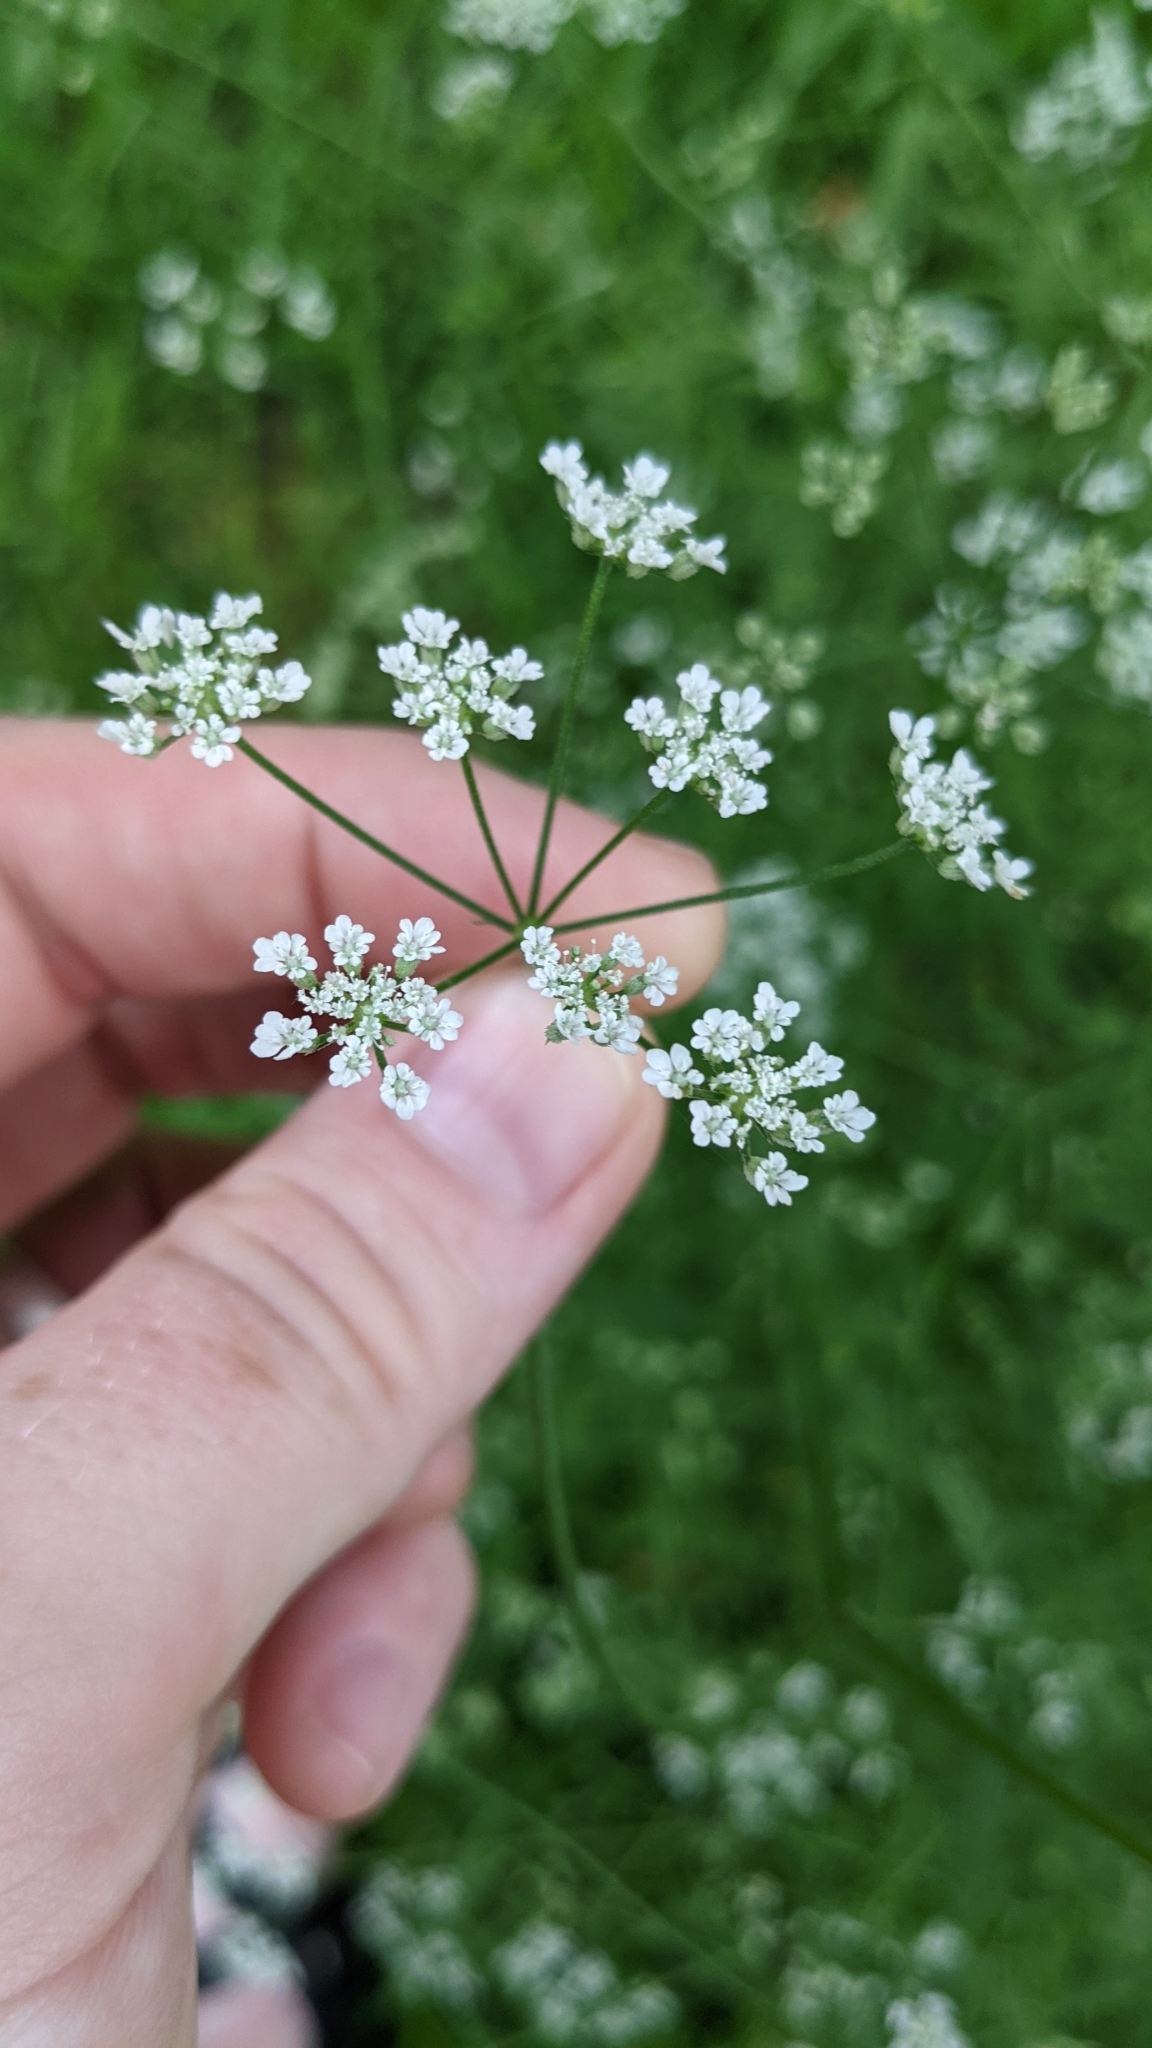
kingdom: Plantae
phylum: Tracheophyta
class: Magnoliopsida
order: Apiales
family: Apiaceae
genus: Torilis
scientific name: Torilis arvensis
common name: Spreading hedge-parsley
